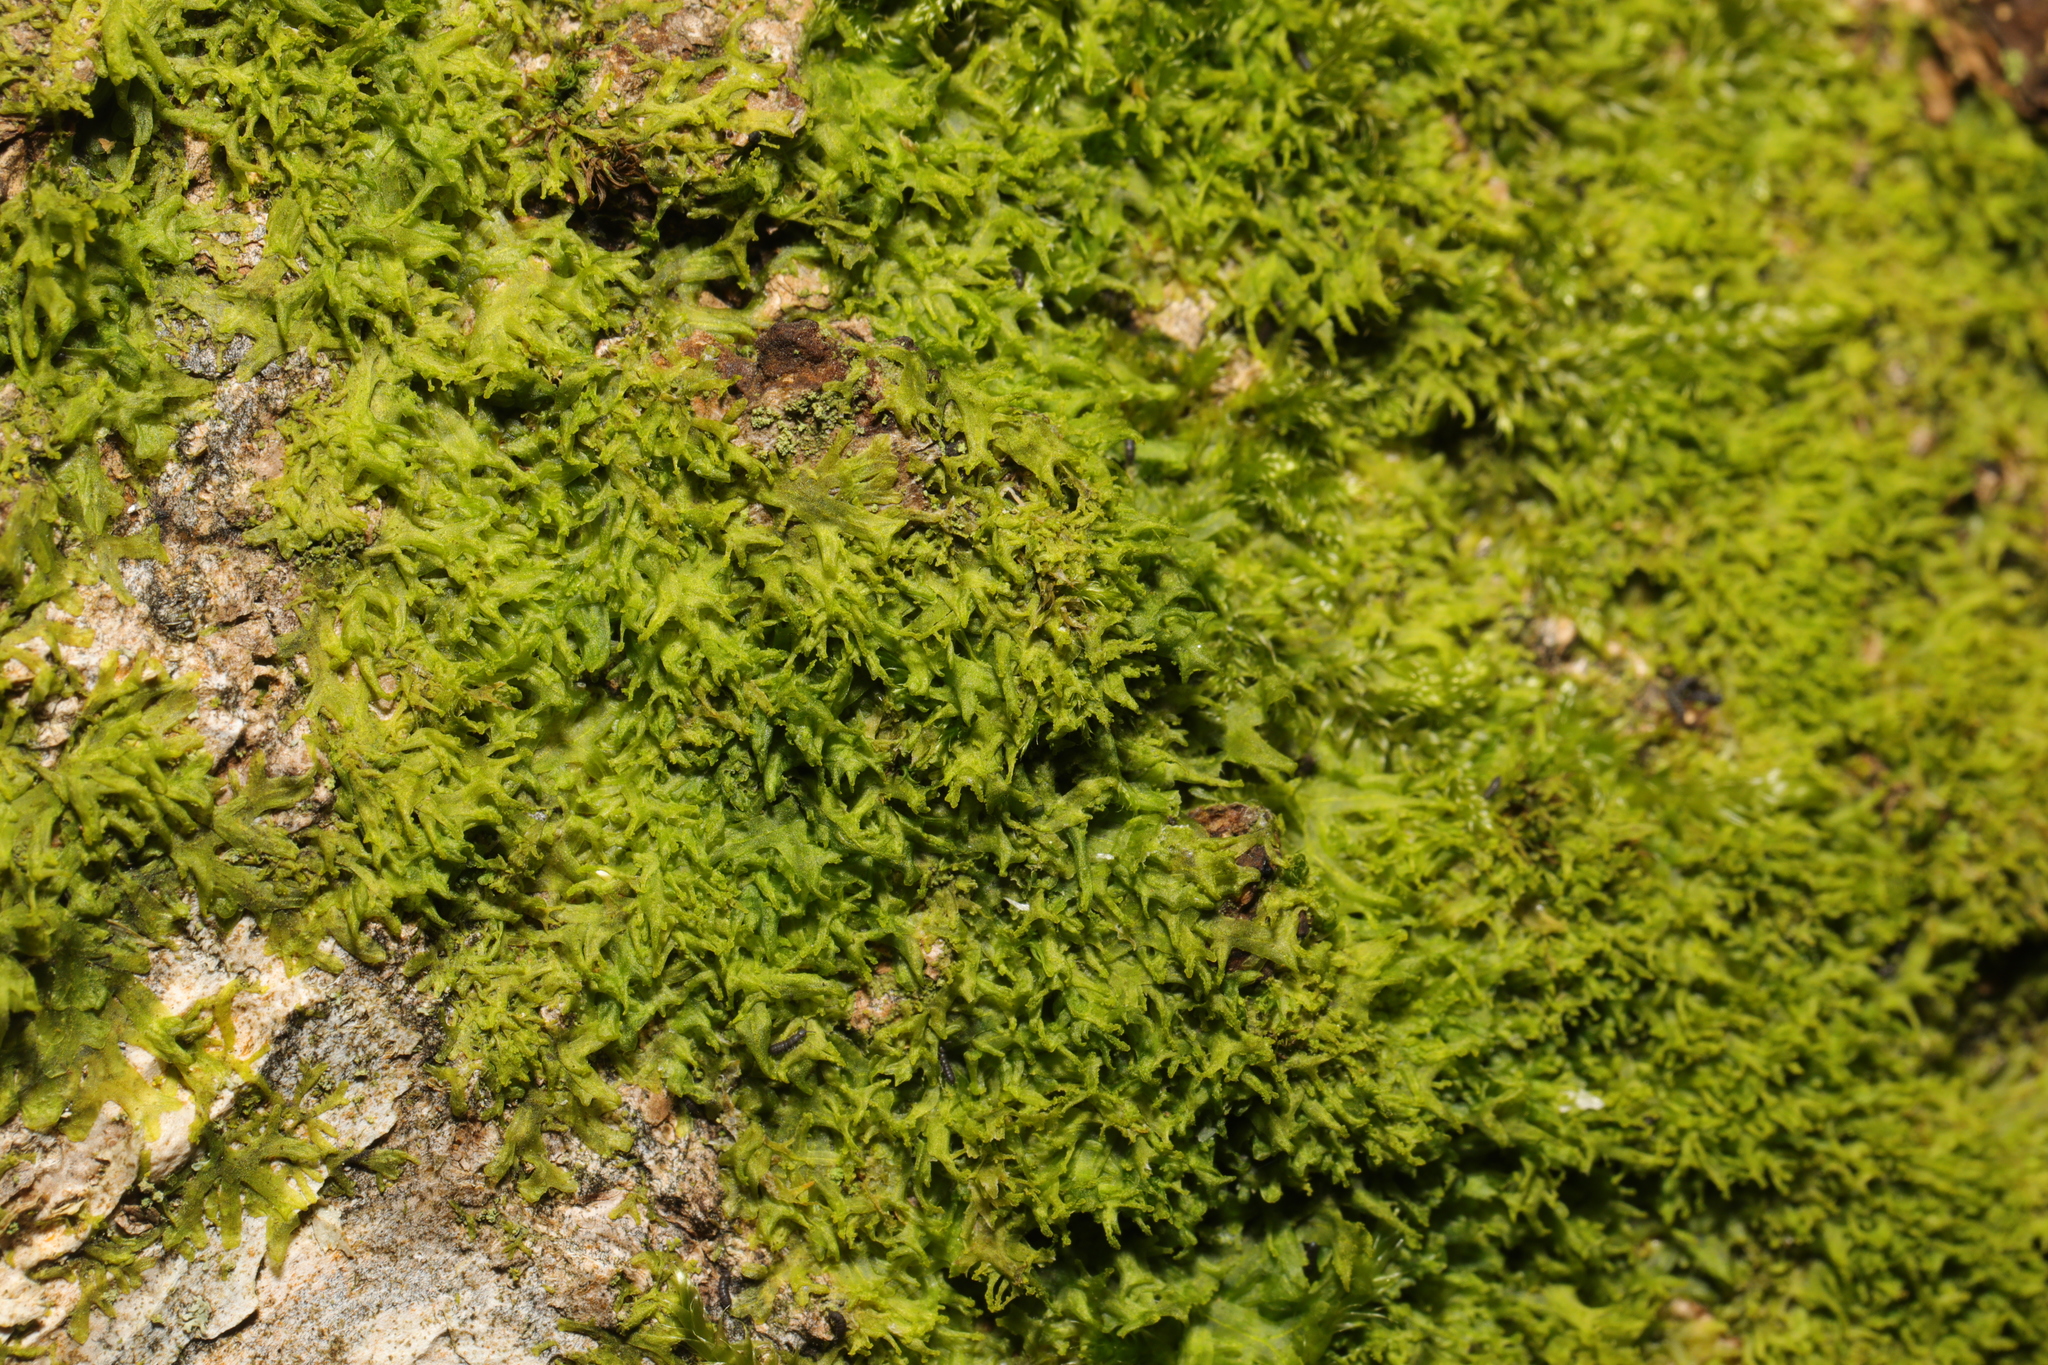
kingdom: Plantae
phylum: Marchantiophyta
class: Jungermanniopsida
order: Metzgeriales
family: Metzgeriaceae
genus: Metzgeria
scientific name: Metzgeria furcata
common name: Forked veilwort
